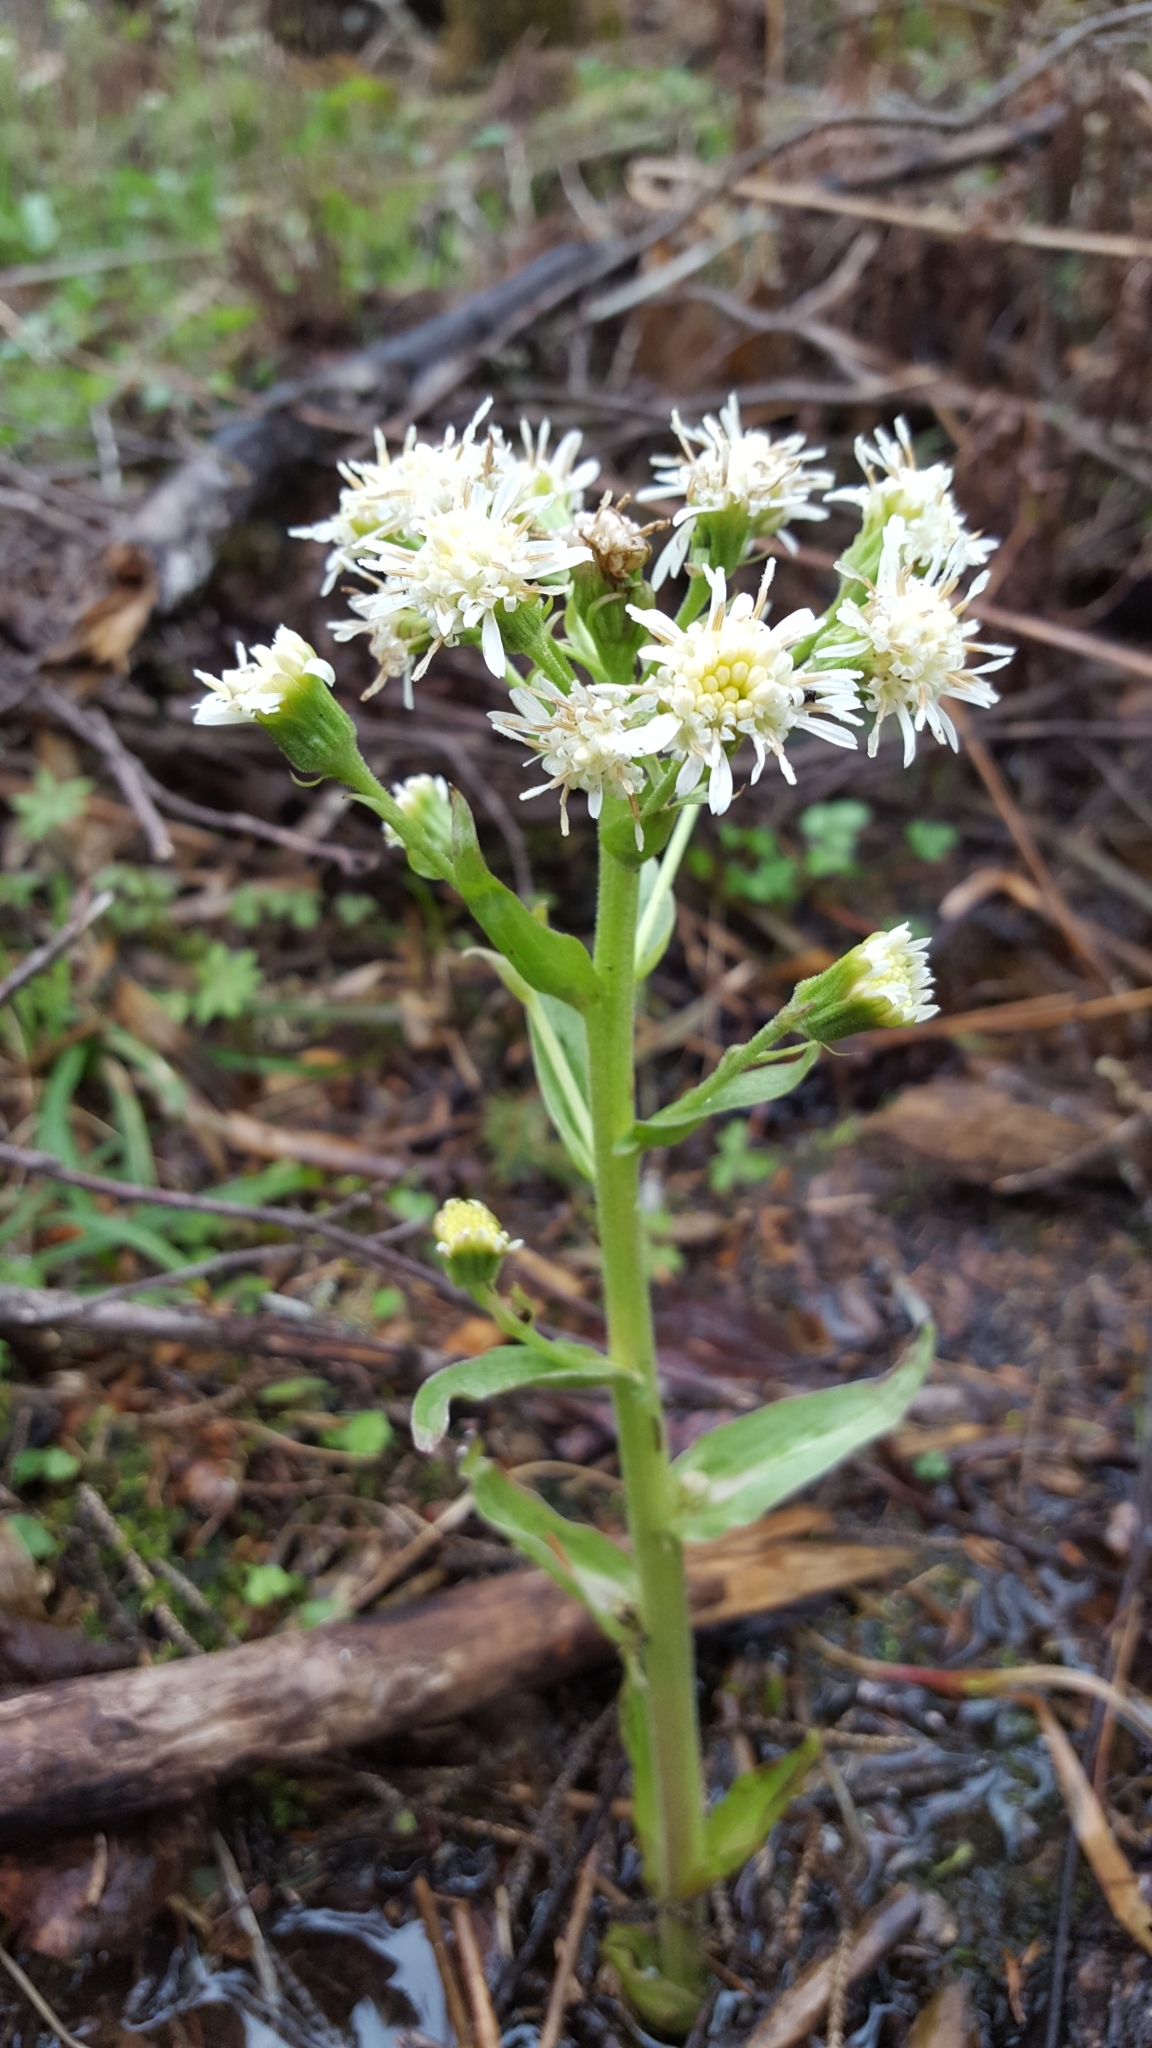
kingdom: Plantae
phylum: Tracheophyta
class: Magnoliopsida
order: Asterales
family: Asteraceae
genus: Petasites
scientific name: Petasites frigidus
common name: Arctic butterbur
